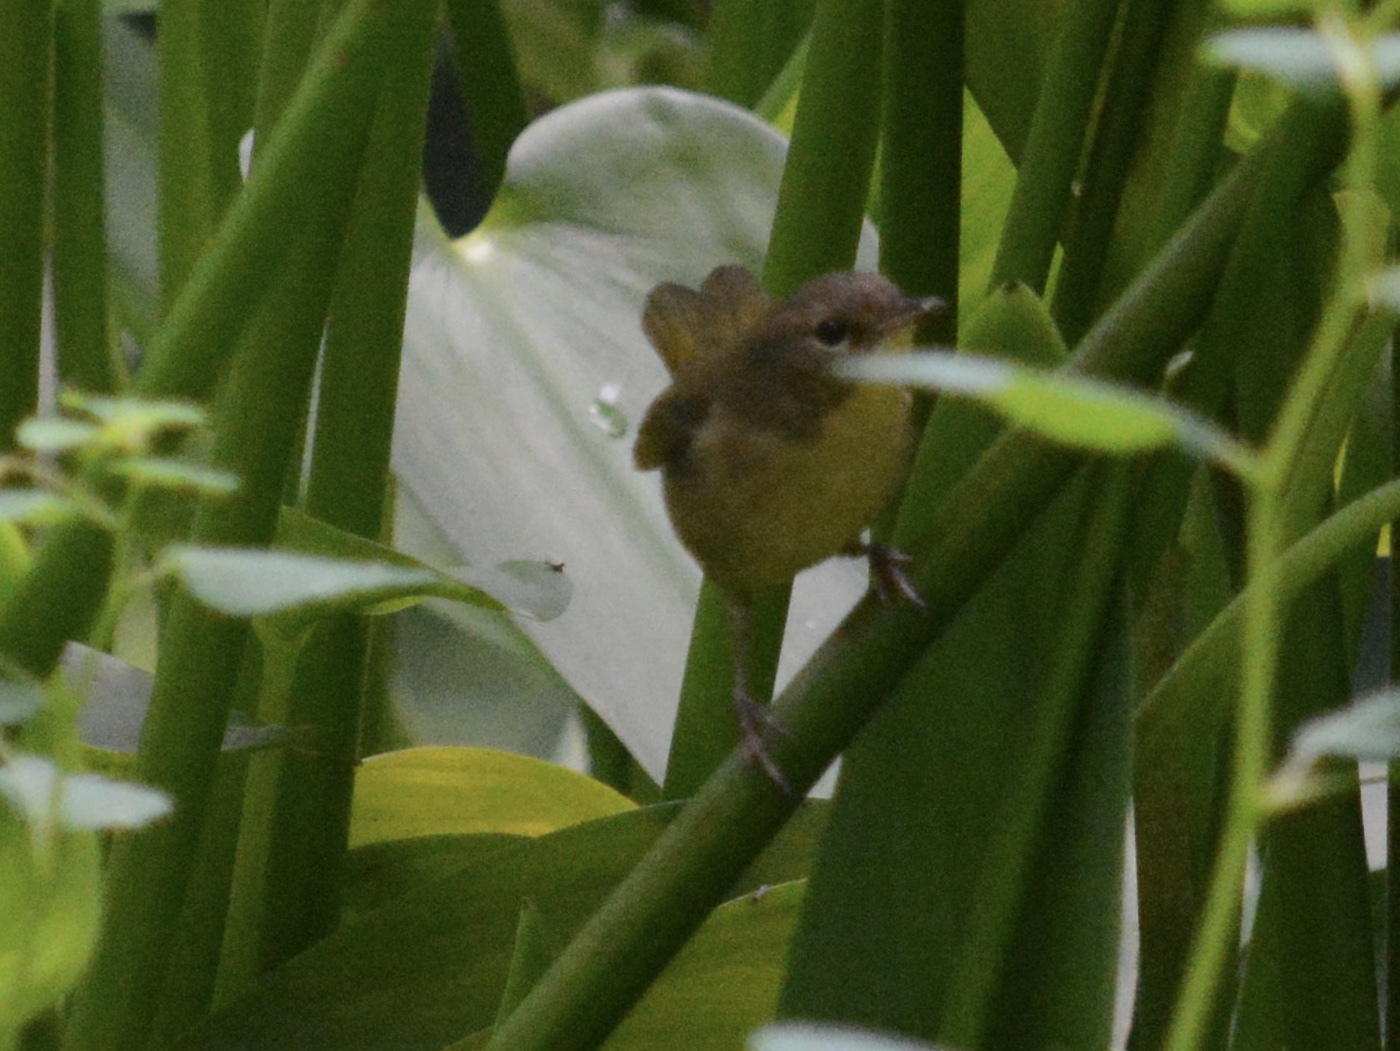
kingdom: Animalia
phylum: Chordata
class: Aves
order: Passeriformes
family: Parulidae
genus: Geothlypis
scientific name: Geothlypis trichas
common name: Common yellowthroat
